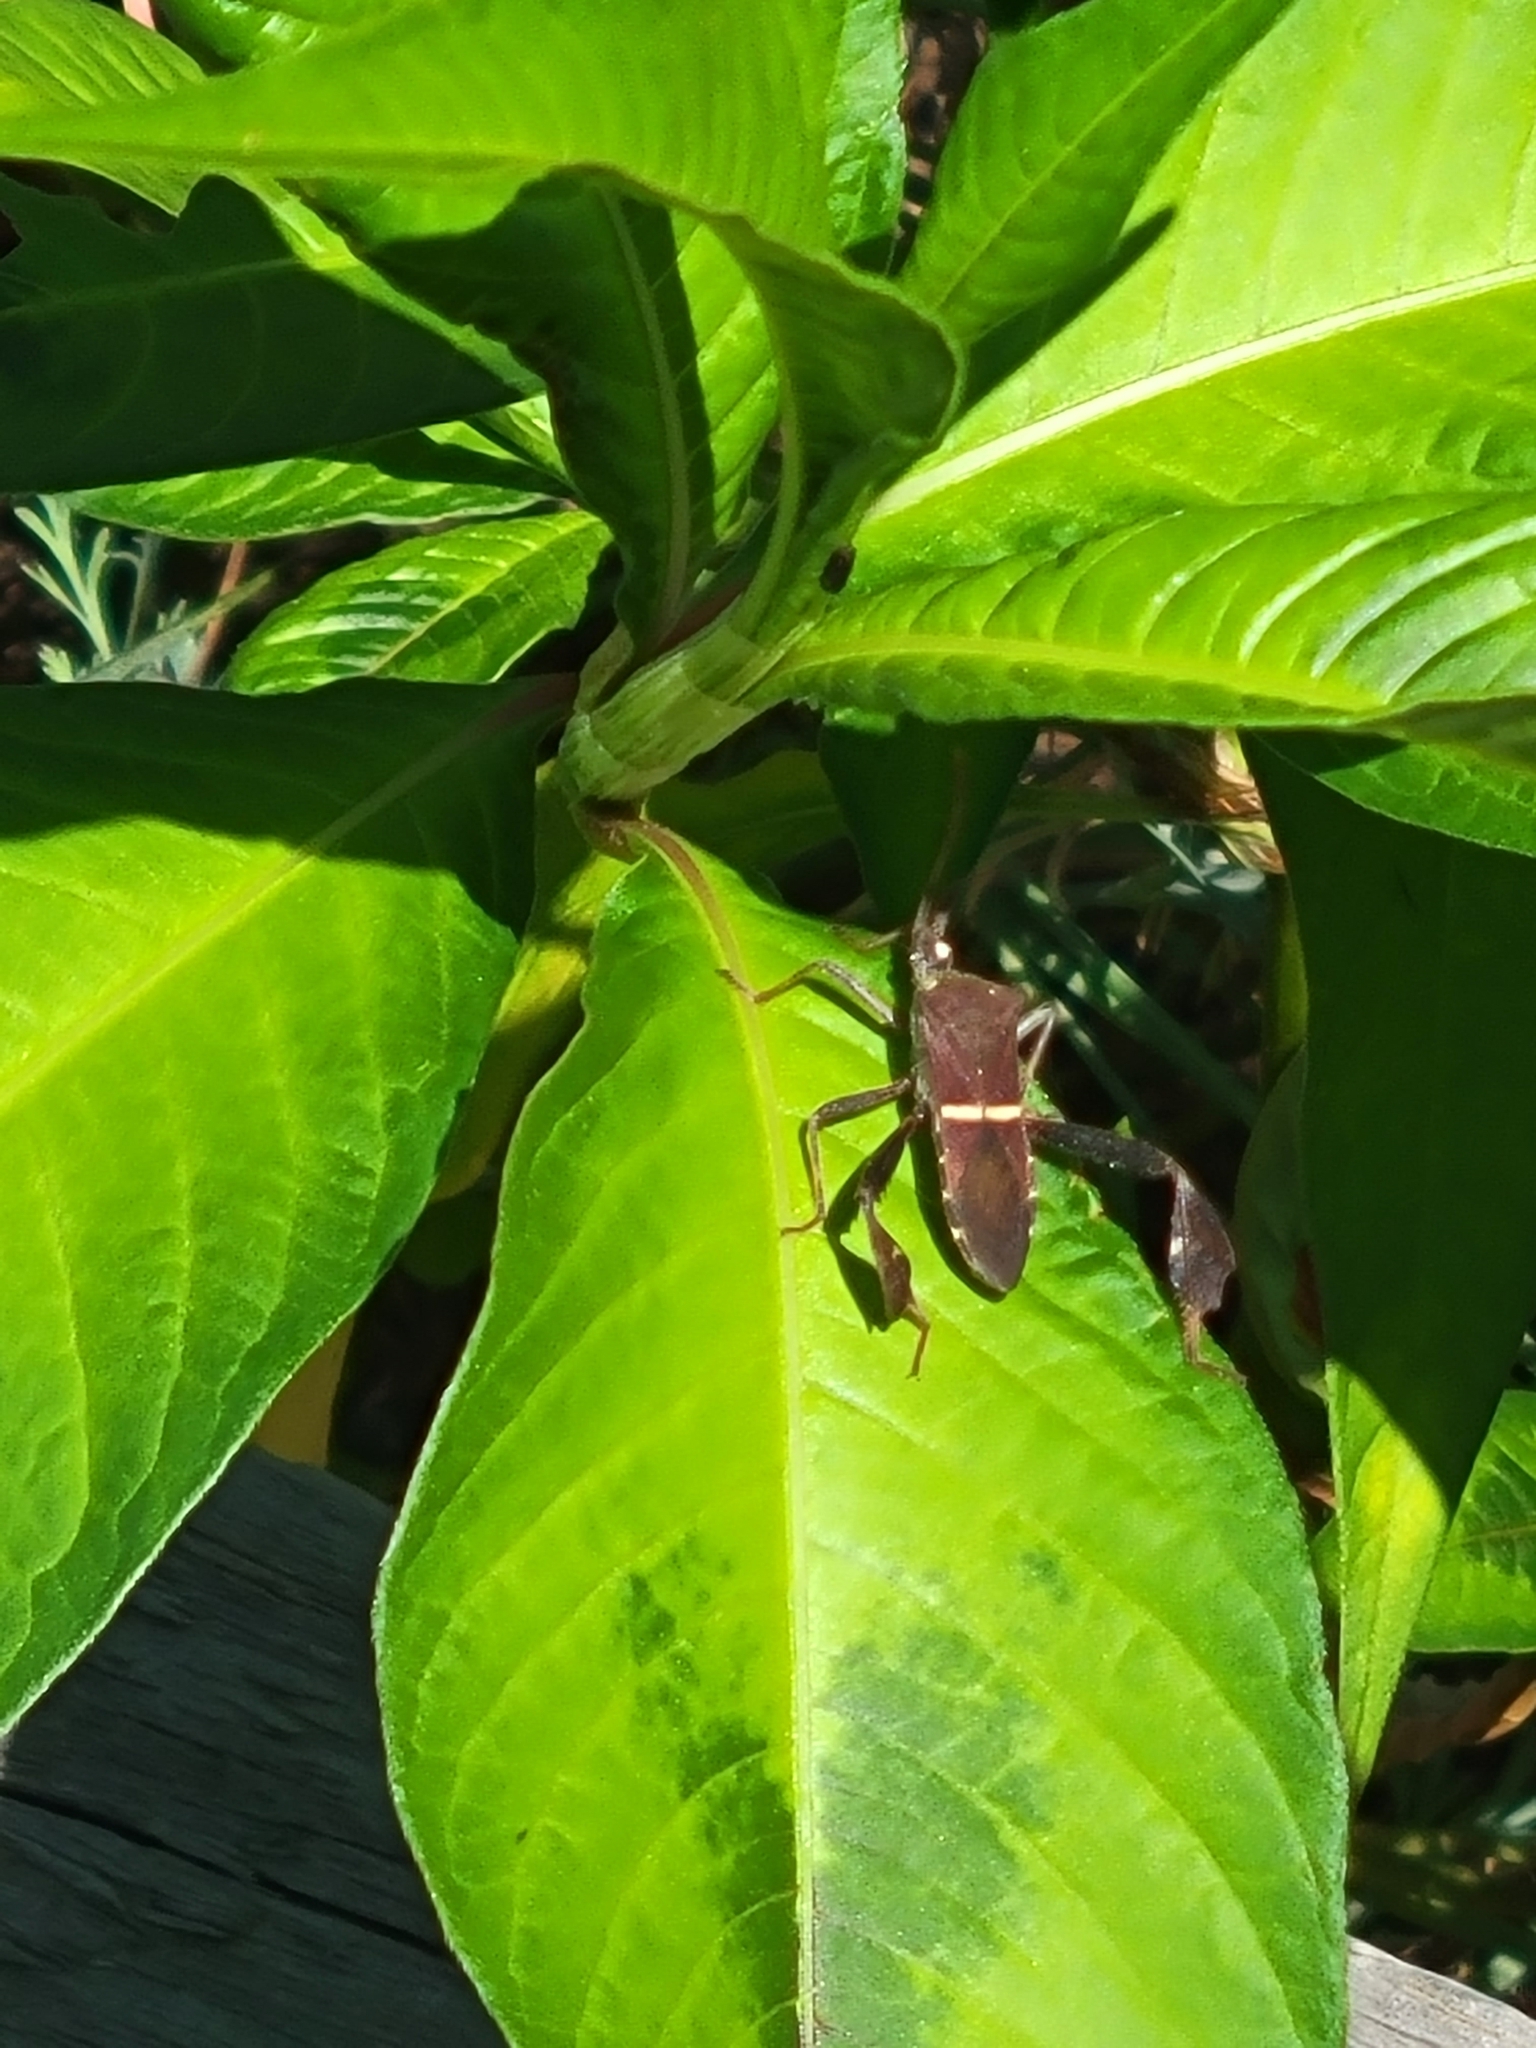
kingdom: Animalia
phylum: Arthropoda
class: Insecta
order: Hemiptera
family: Coreidae
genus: Leptoglossus
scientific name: Leptoglossus phyllopus
